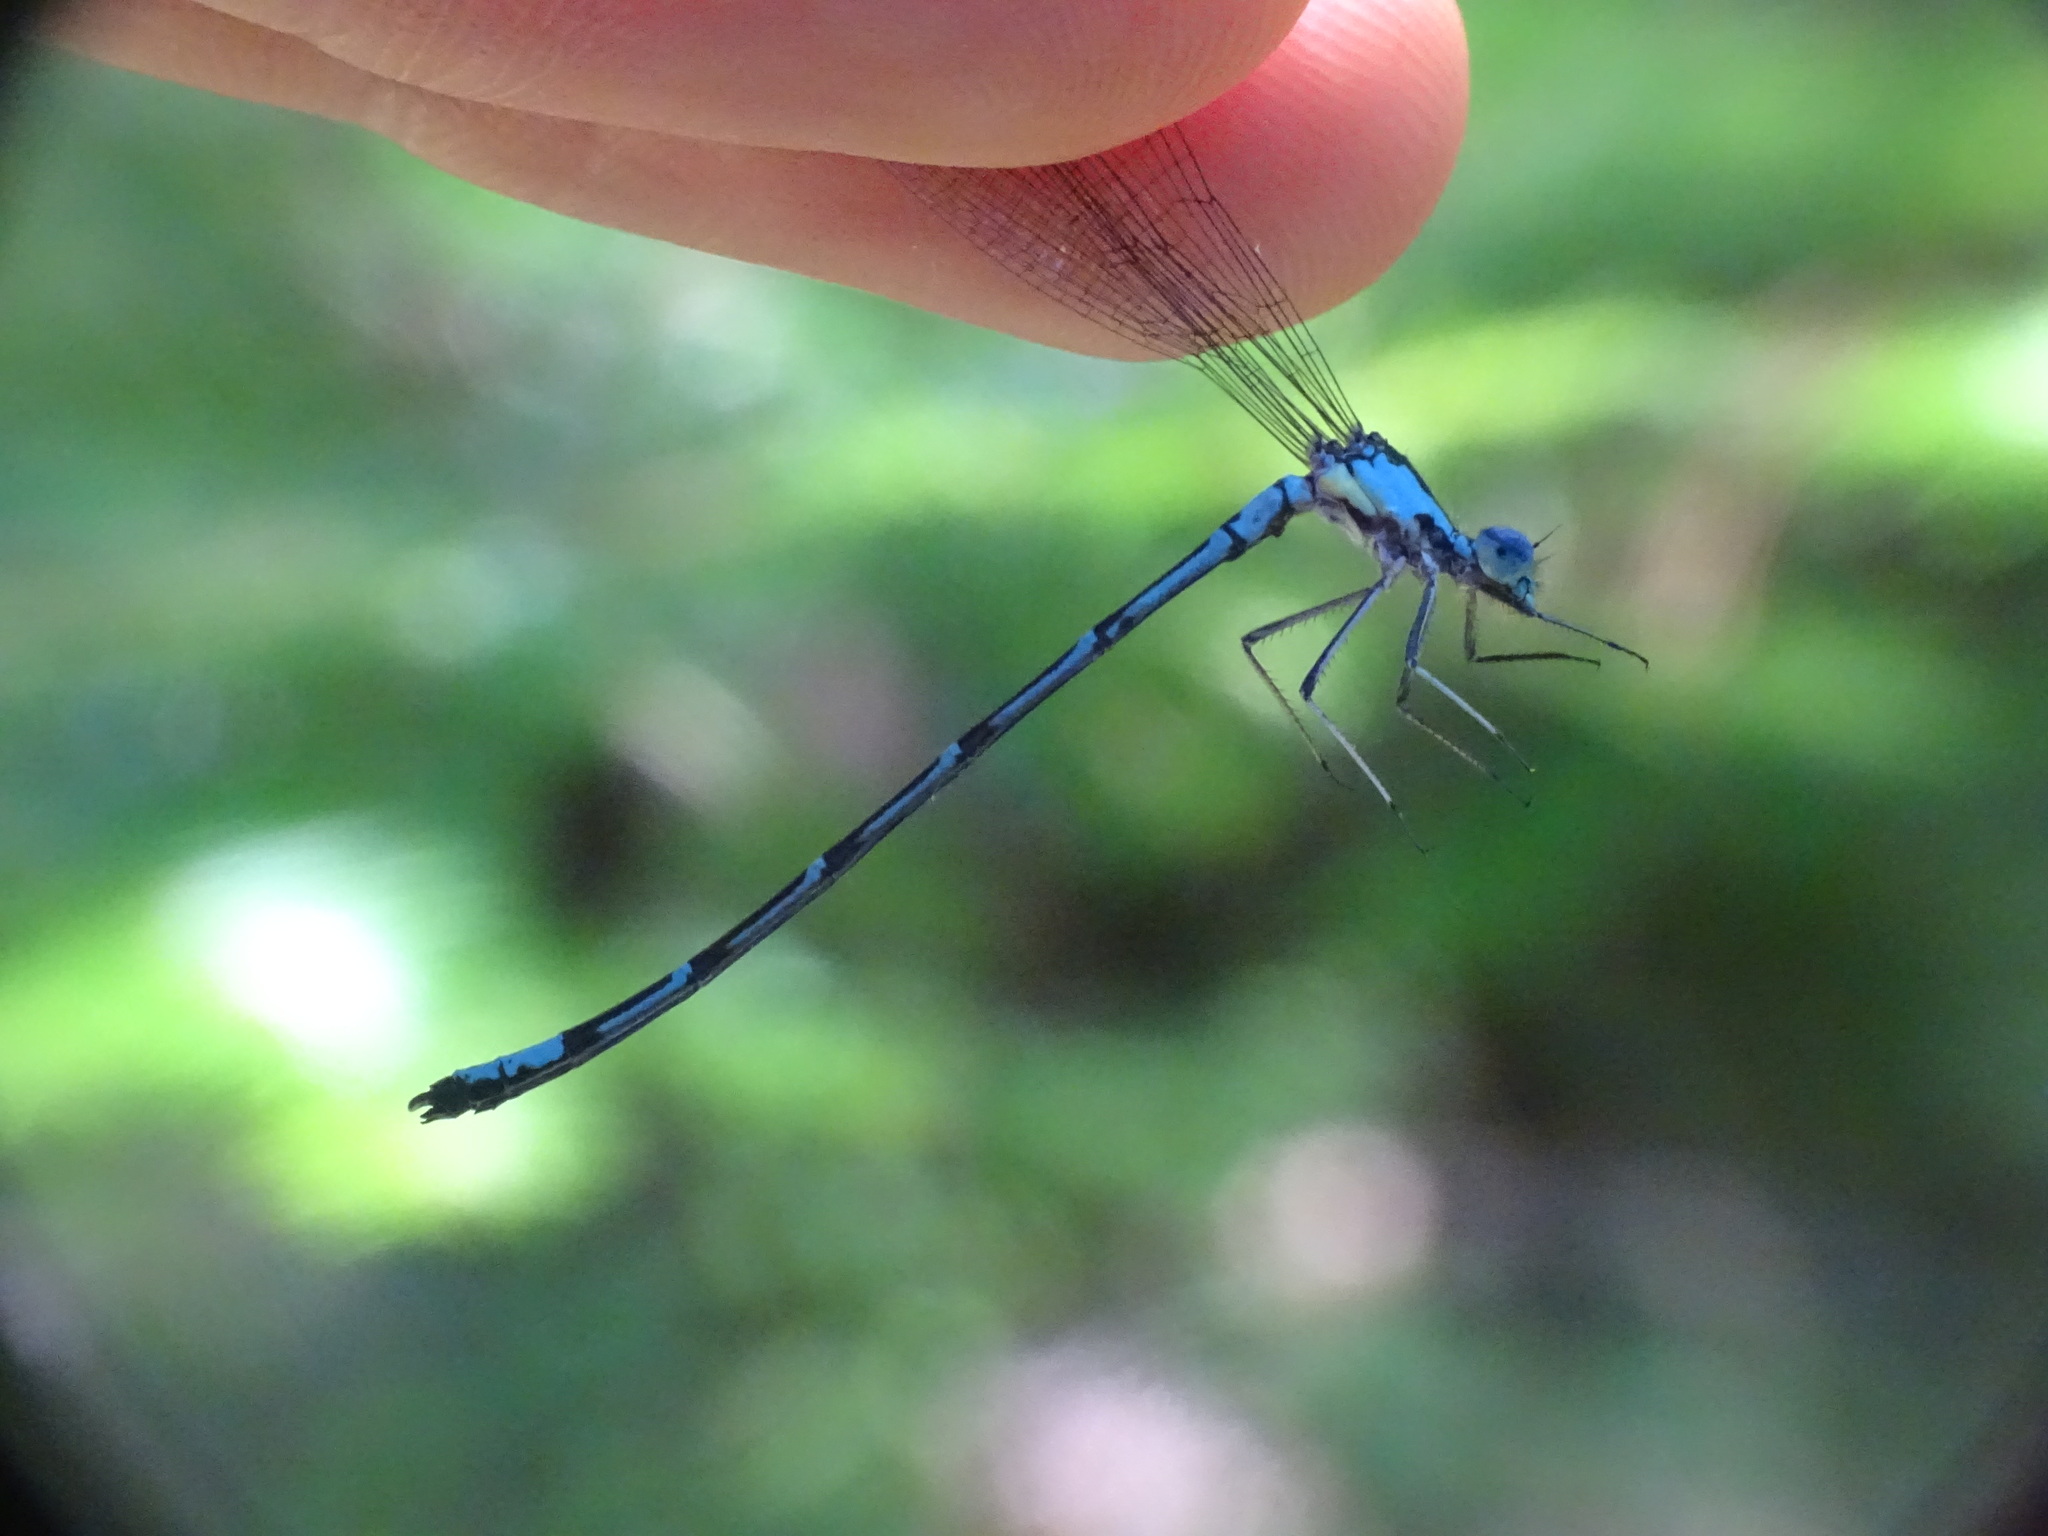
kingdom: Animalia
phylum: Arthropoda
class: Insecta
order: Odonata
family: Coenagrionidae
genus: Chromagrion
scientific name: Chromagrion conditum
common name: Aurora damsel
